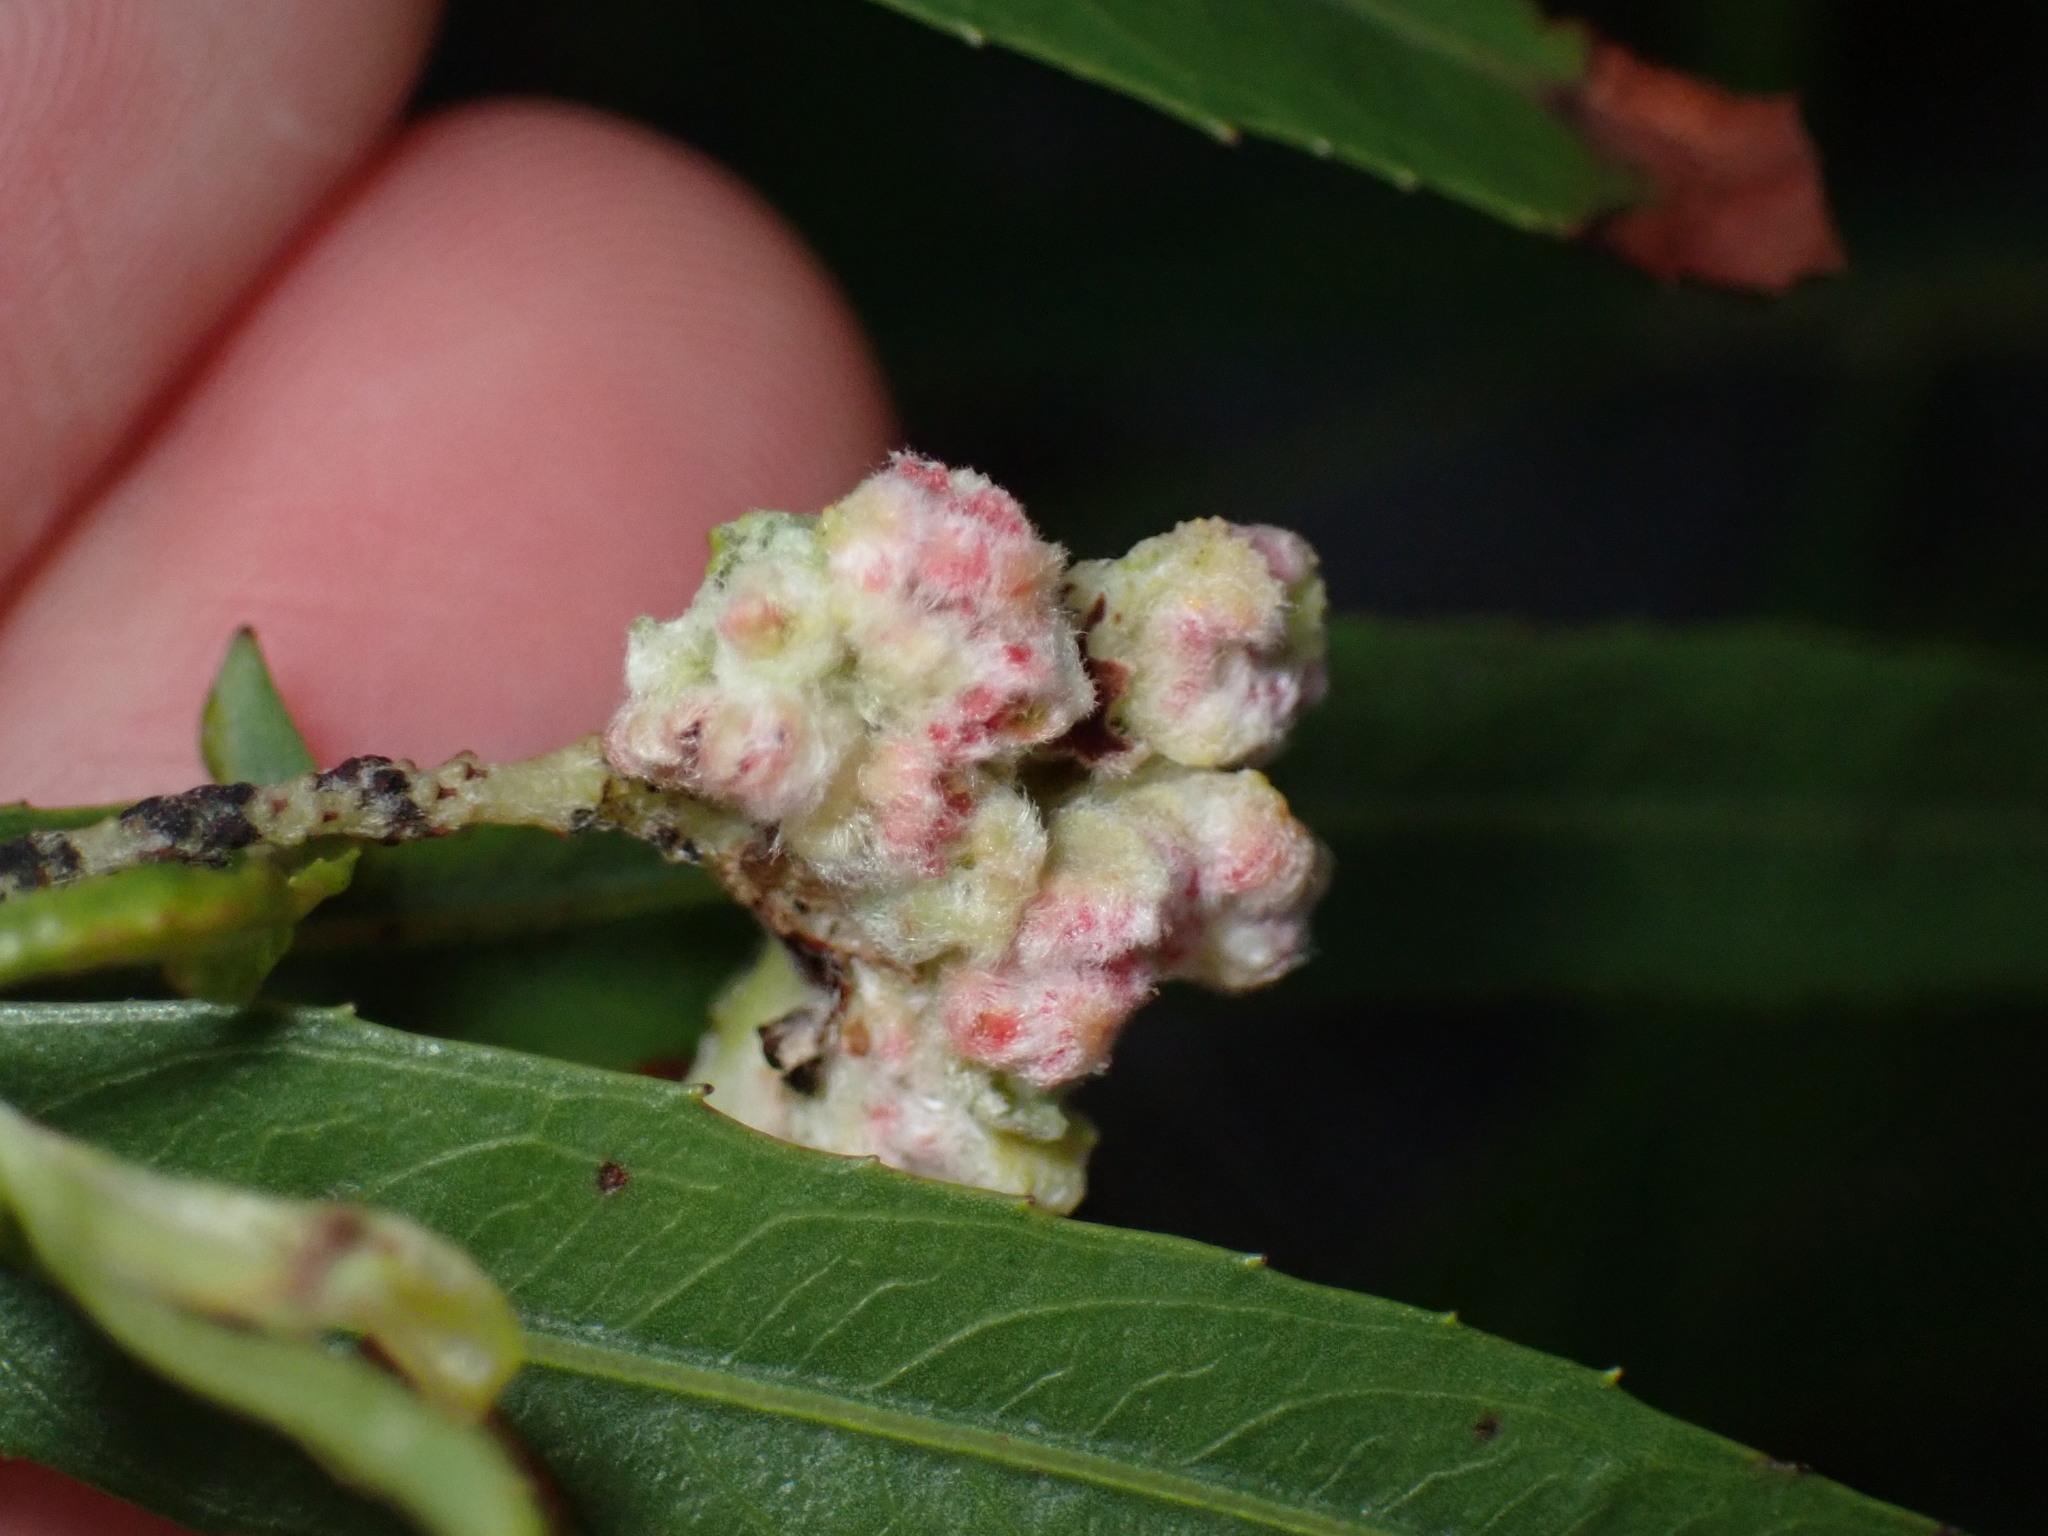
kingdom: Animalia
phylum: Arthropoda
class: Arachnida
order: Trombidiformes
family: Eriophyidae
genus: Aculops
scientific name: Aculops
